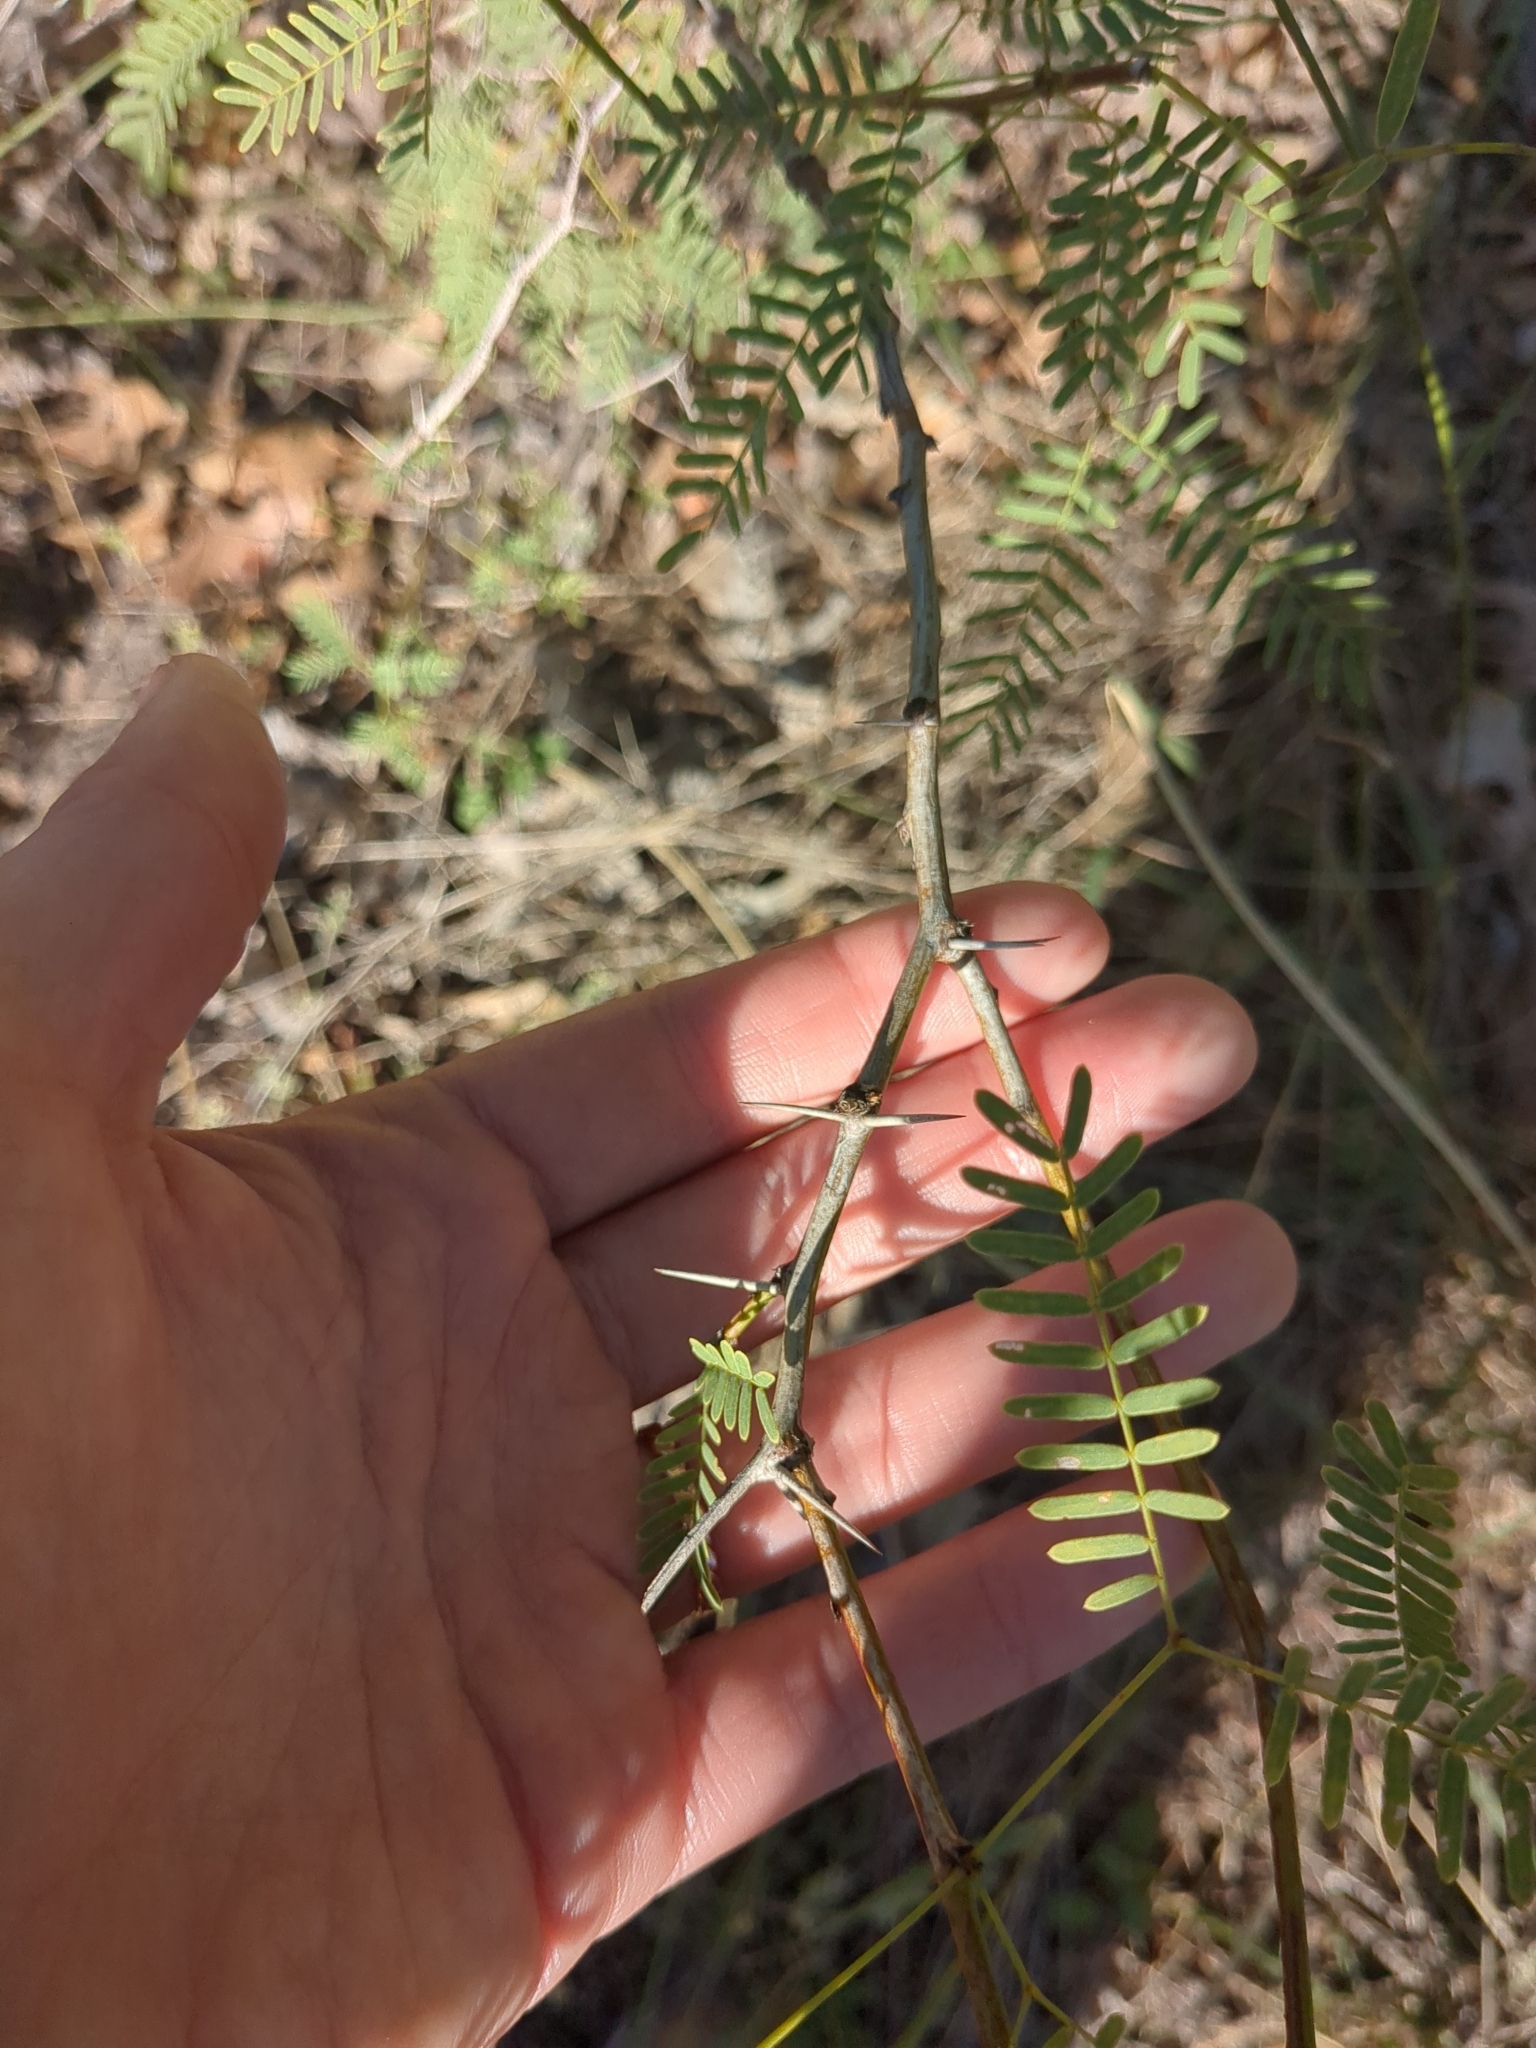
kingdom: Plantae
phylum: Tracheophyta
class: Magnoliopsida
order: Fabales
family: Fabaceae
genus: Prosopis
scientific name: Prosopis glandulosa
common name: Honey mesquite
